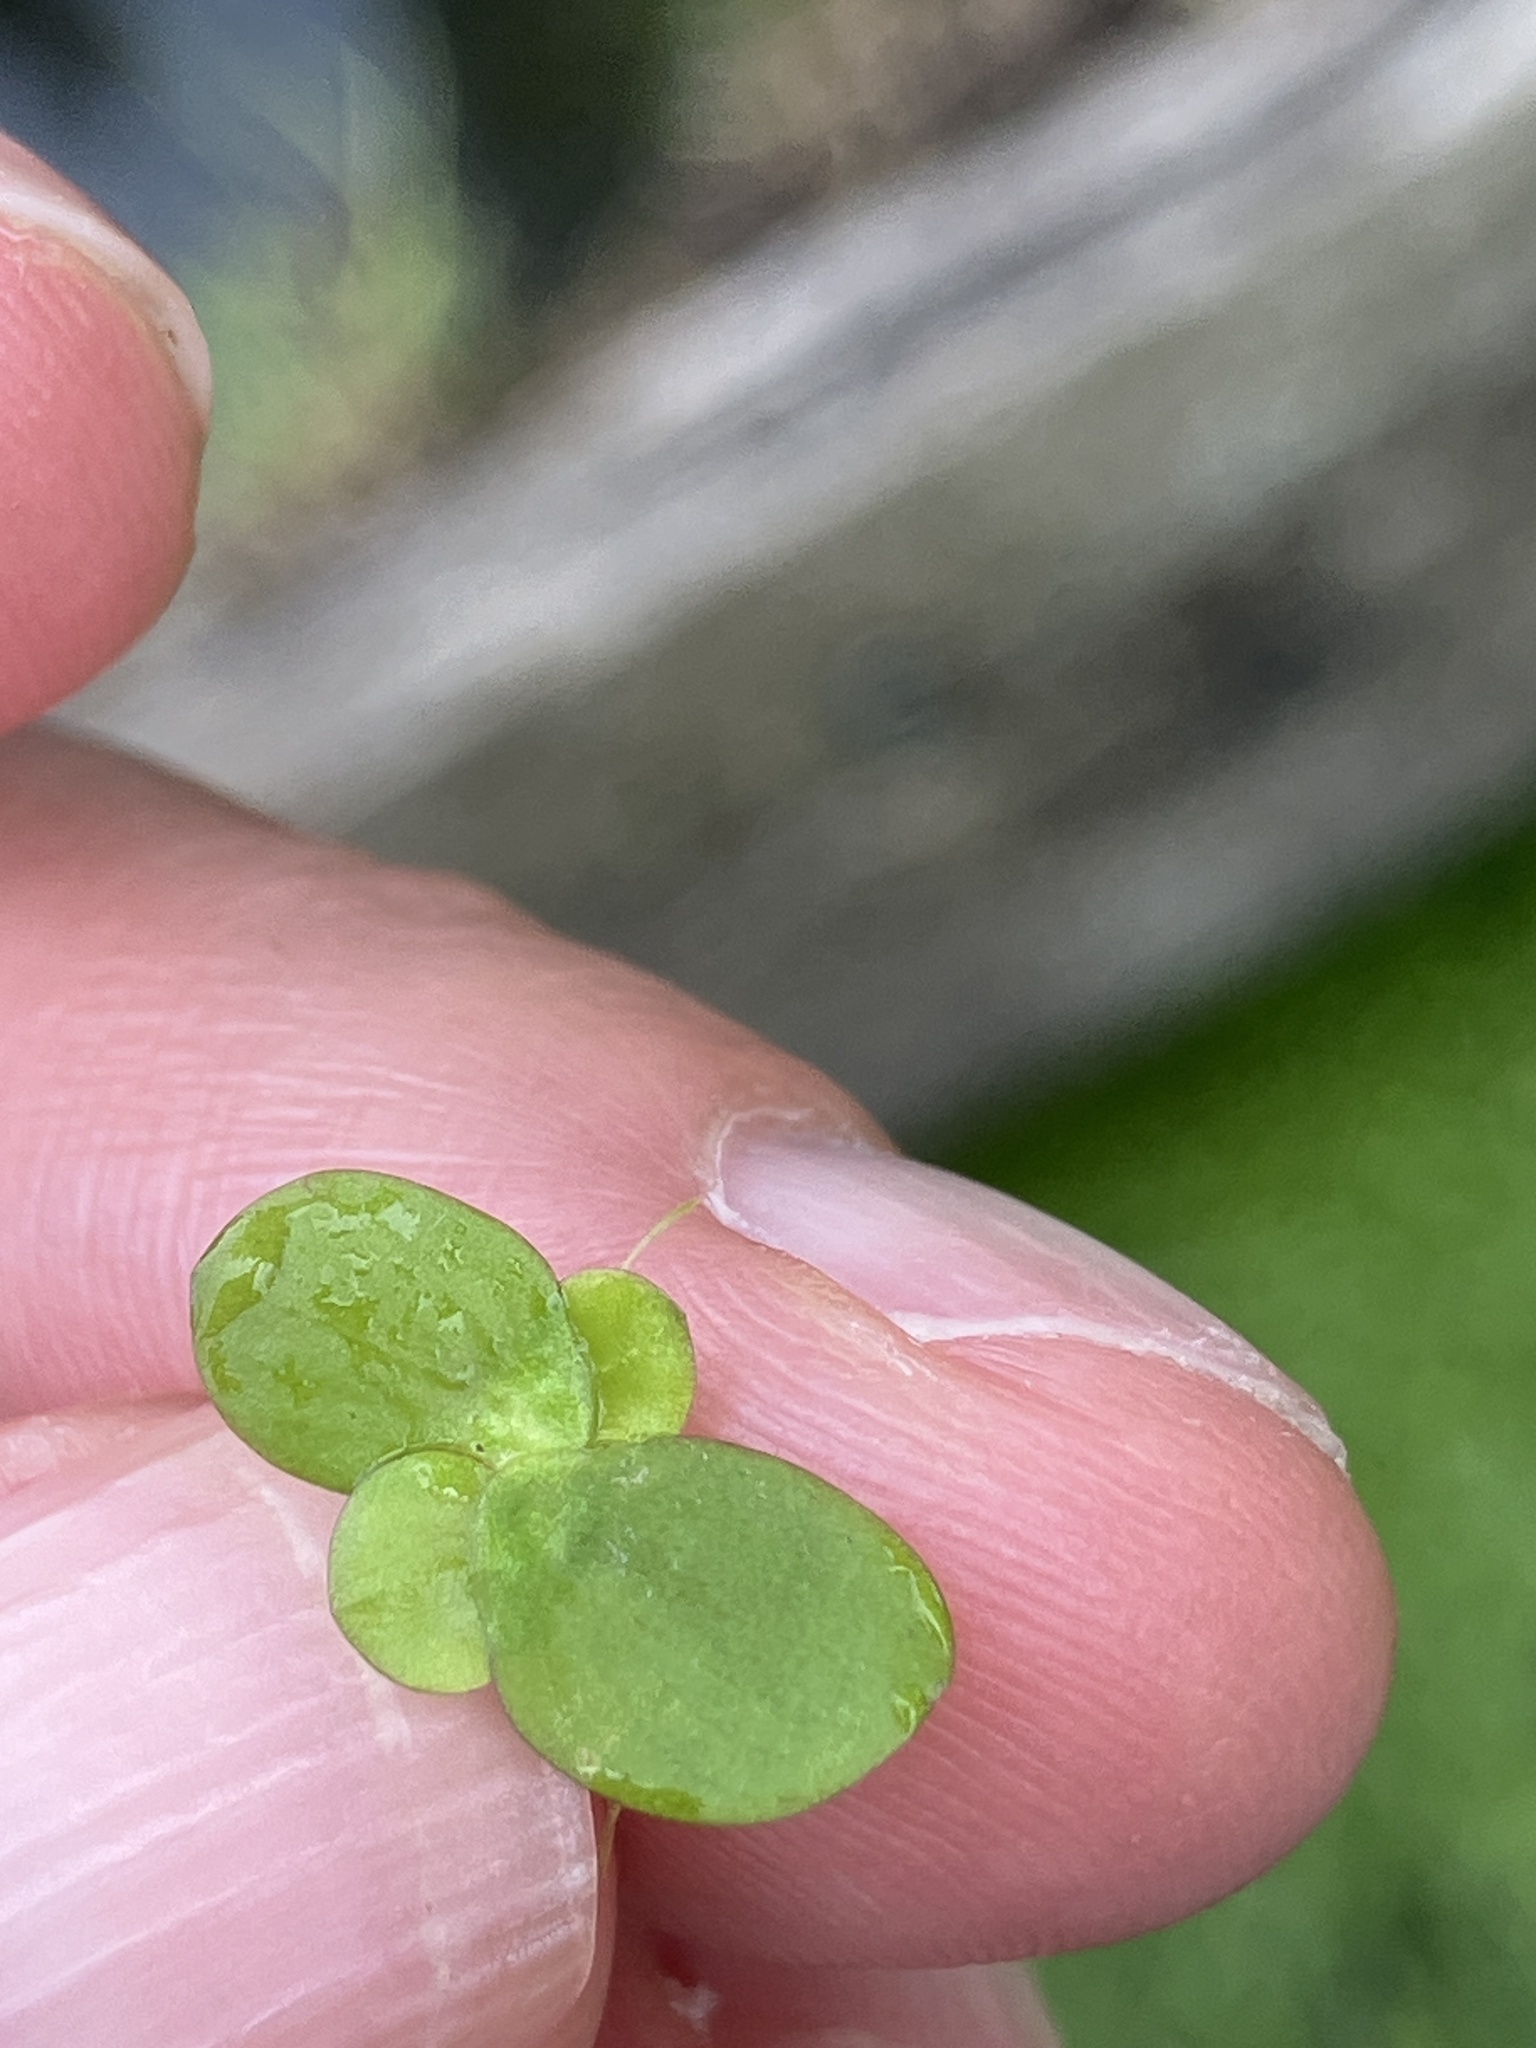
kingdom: Plantae
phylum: Tracheophyta
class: Liliopsida
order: Alismatales
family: Araceae
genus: Spirodela
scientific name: Spirodela polyrhiza
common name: Great duckweed
